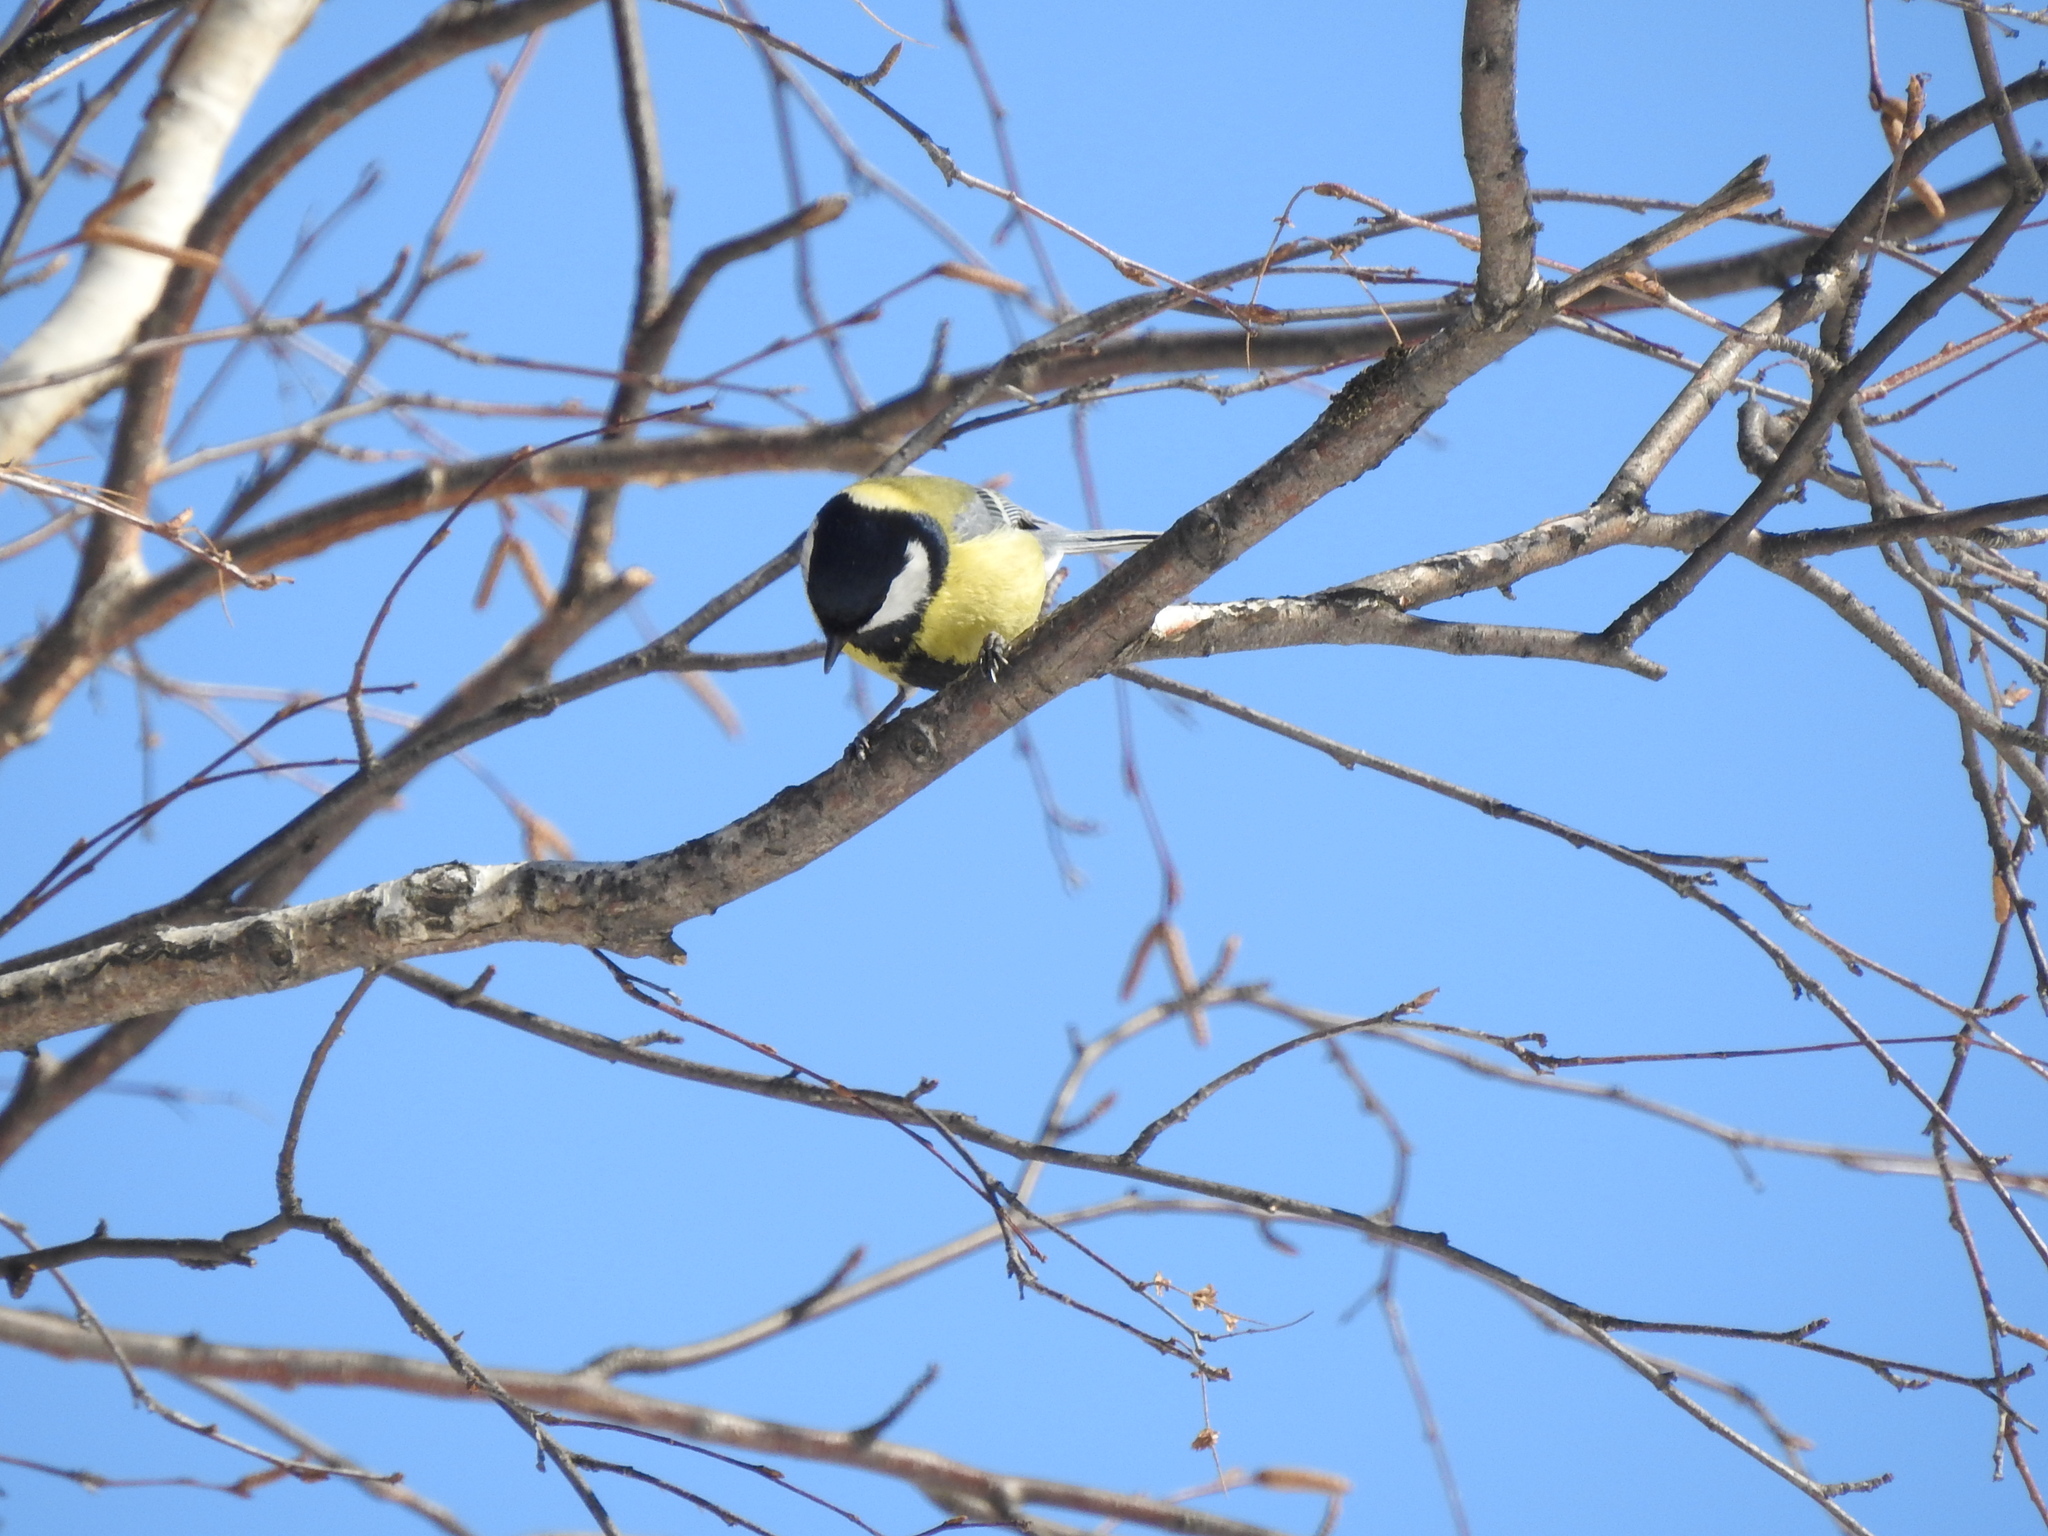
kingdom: Animalia
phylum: Chordata
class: Aves
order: Passeriformes
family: Paridae
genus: Parus
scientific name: Parus major
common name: Great tit
